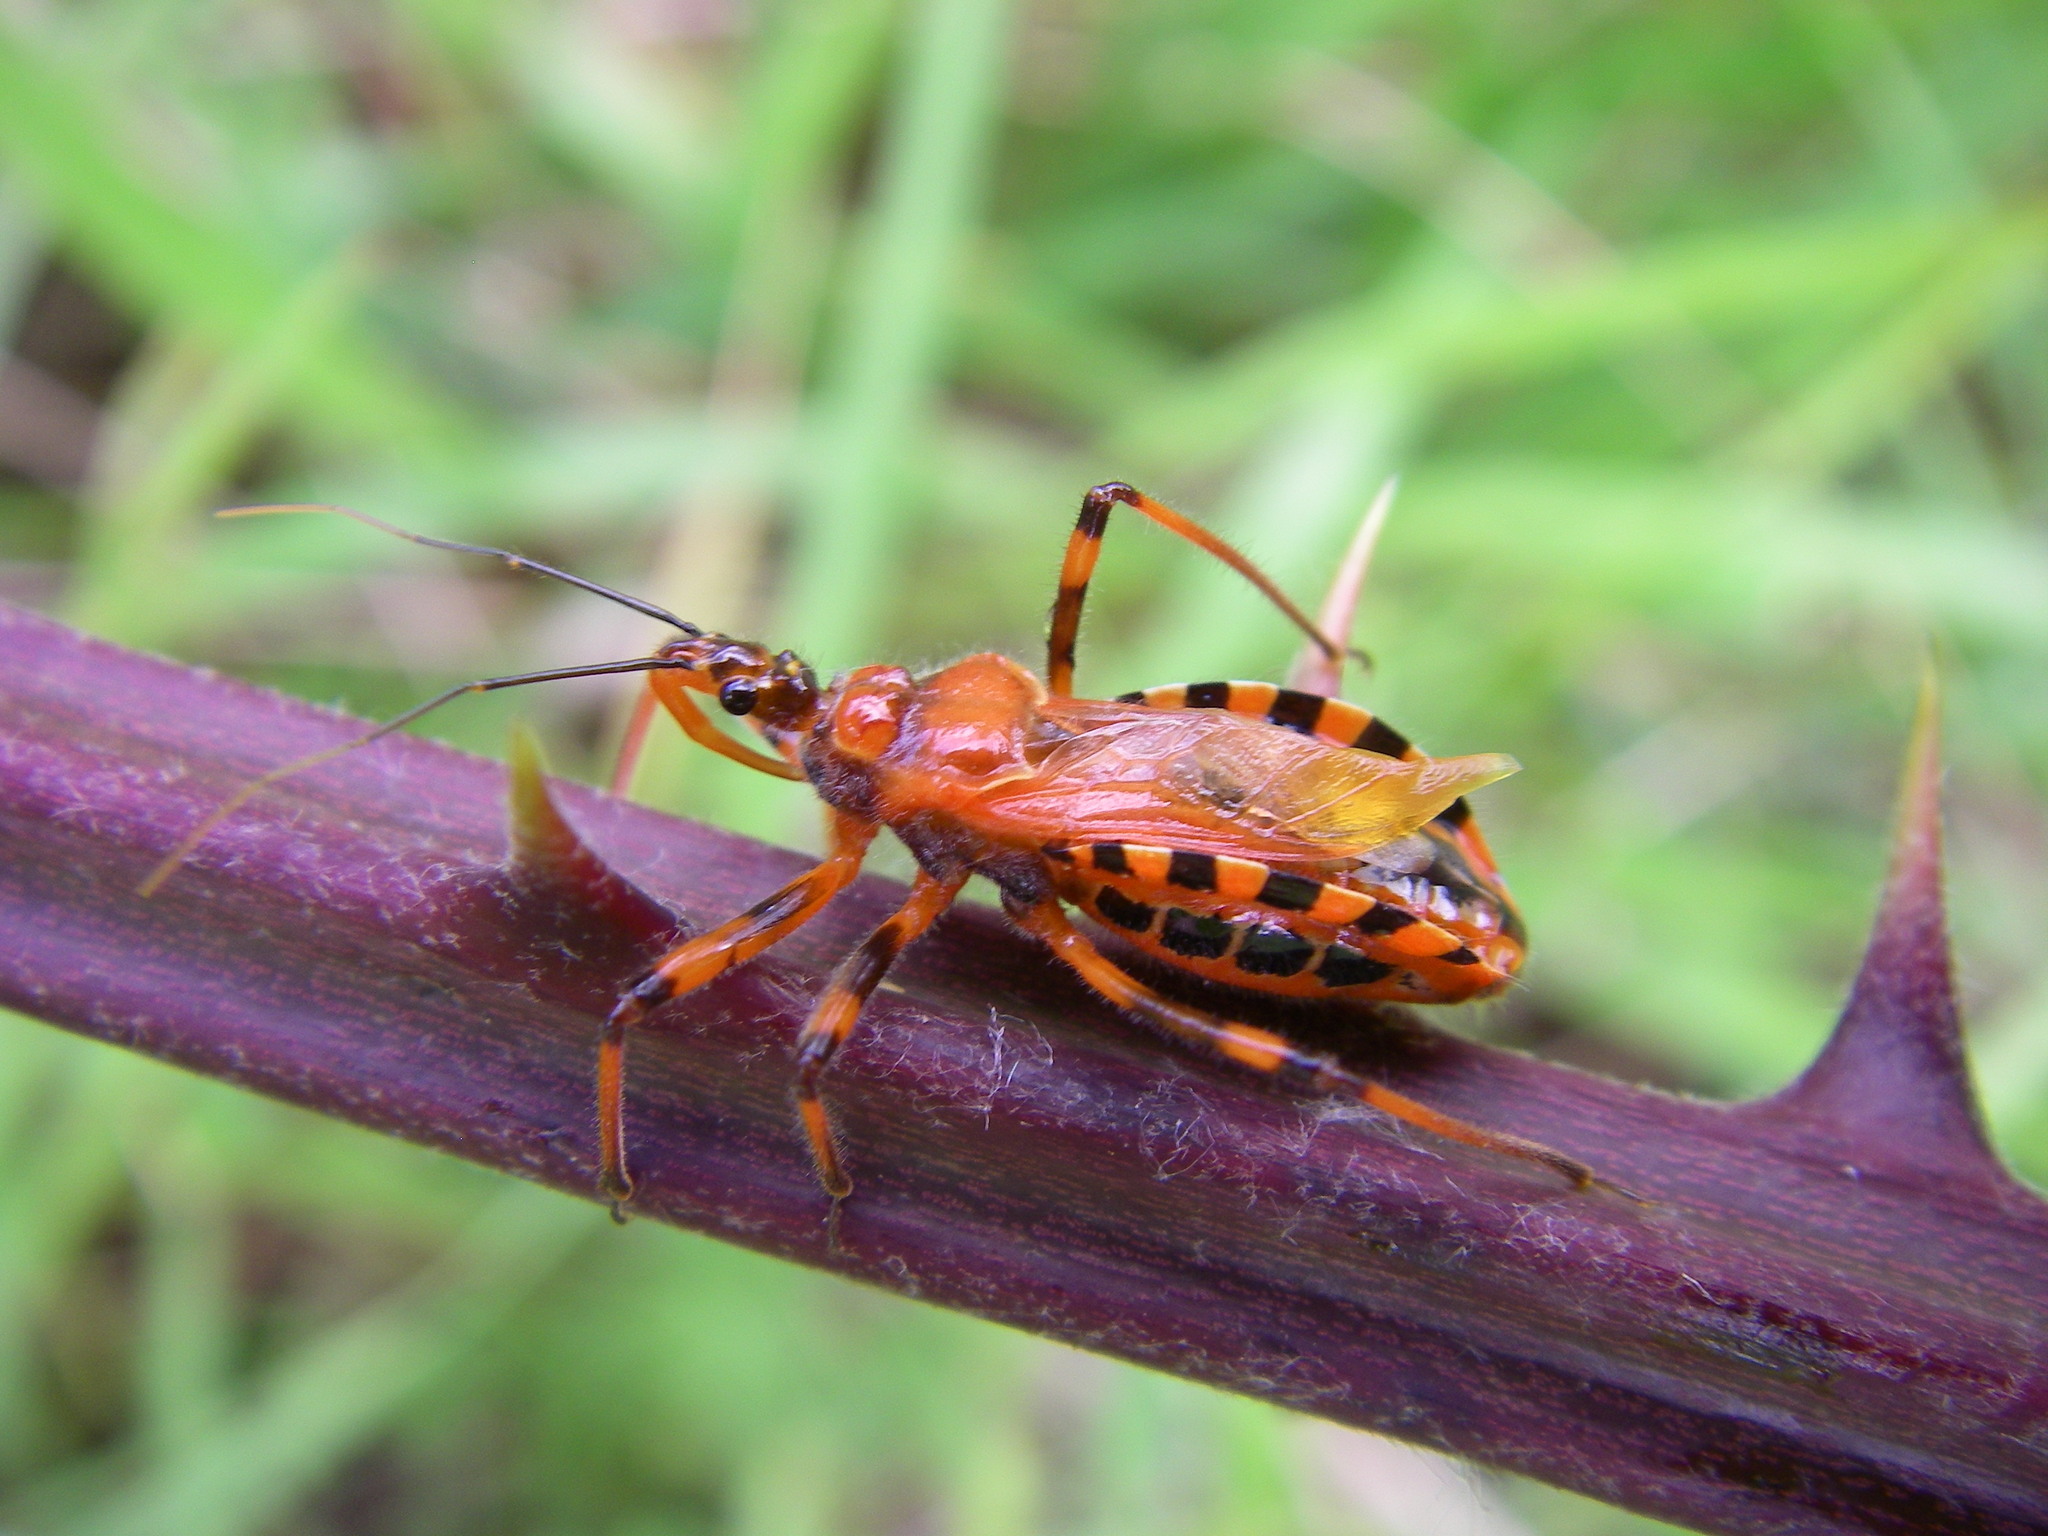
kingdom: Animalia
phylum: Arthropoda
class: Insecta
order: Hemiptera
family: Reduviidae
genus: Rhynocoris
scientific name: Rhynocoris rubricus
